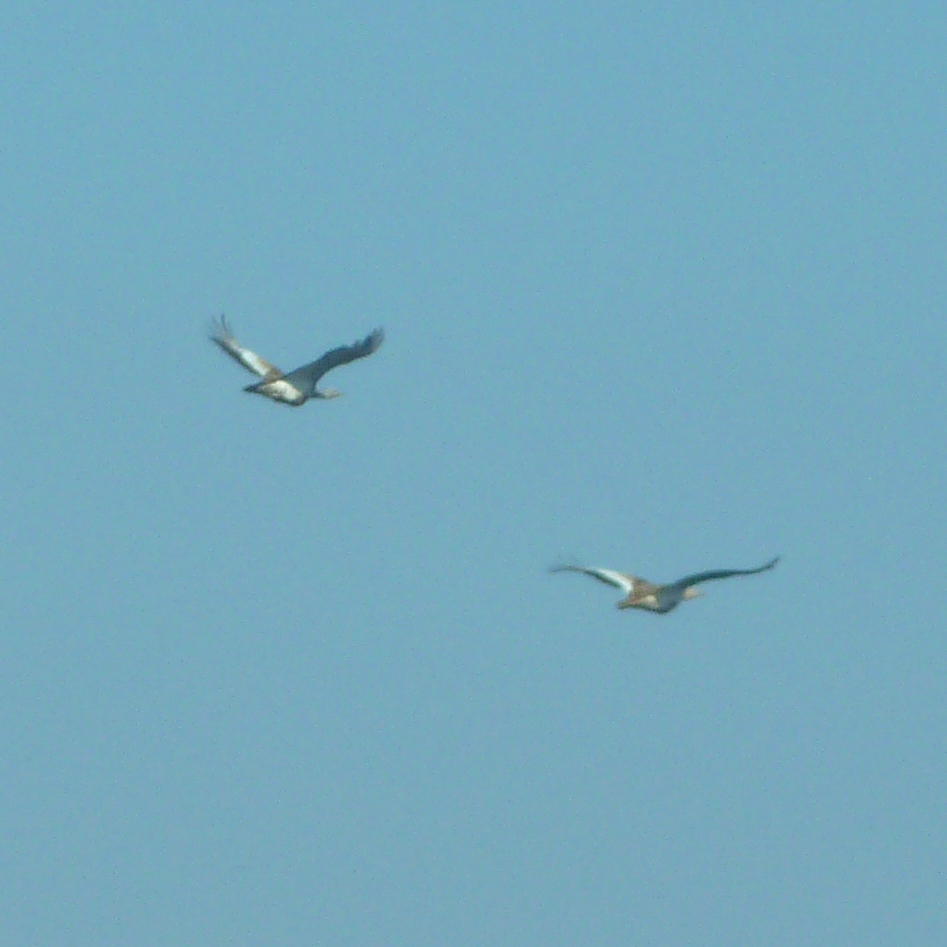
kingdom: Animalia
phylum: Chordata
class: Aves
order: Otidiformes
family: Otididae
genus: Otis
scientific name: Otis tarda
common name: Great bustard
